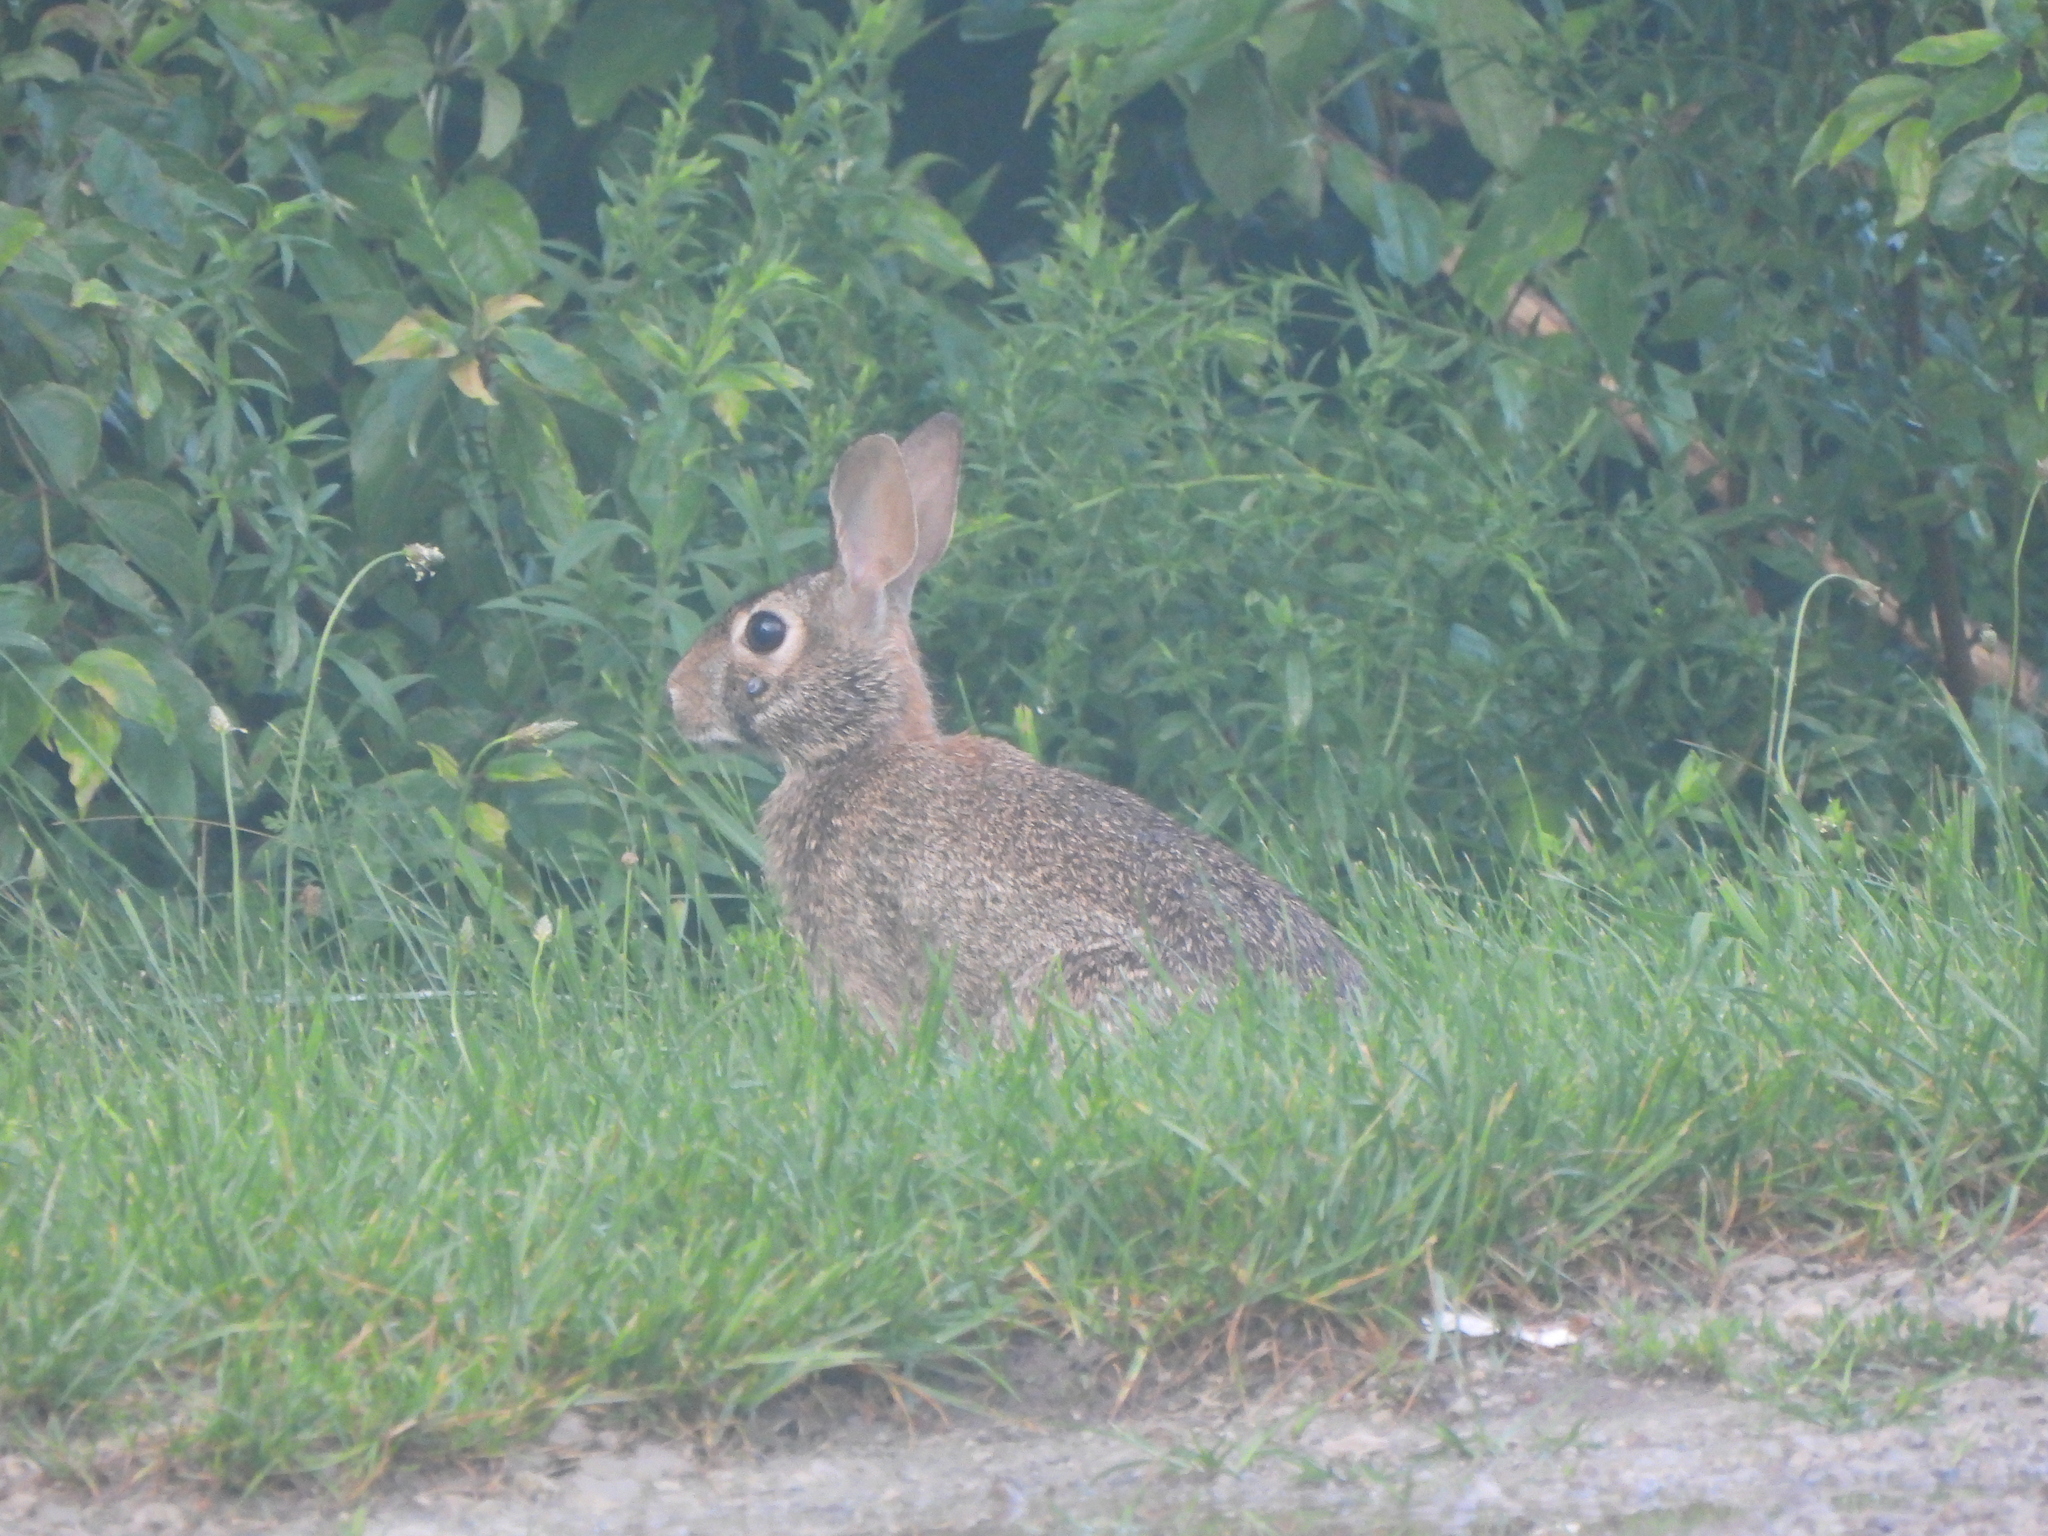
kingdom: Animalia
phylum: Chordata
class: Mammalia
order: Lagomorpha
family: Leporidae
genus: Sylvilagus
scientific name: Sylvilagus floridanus
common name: Eastern cottontail
